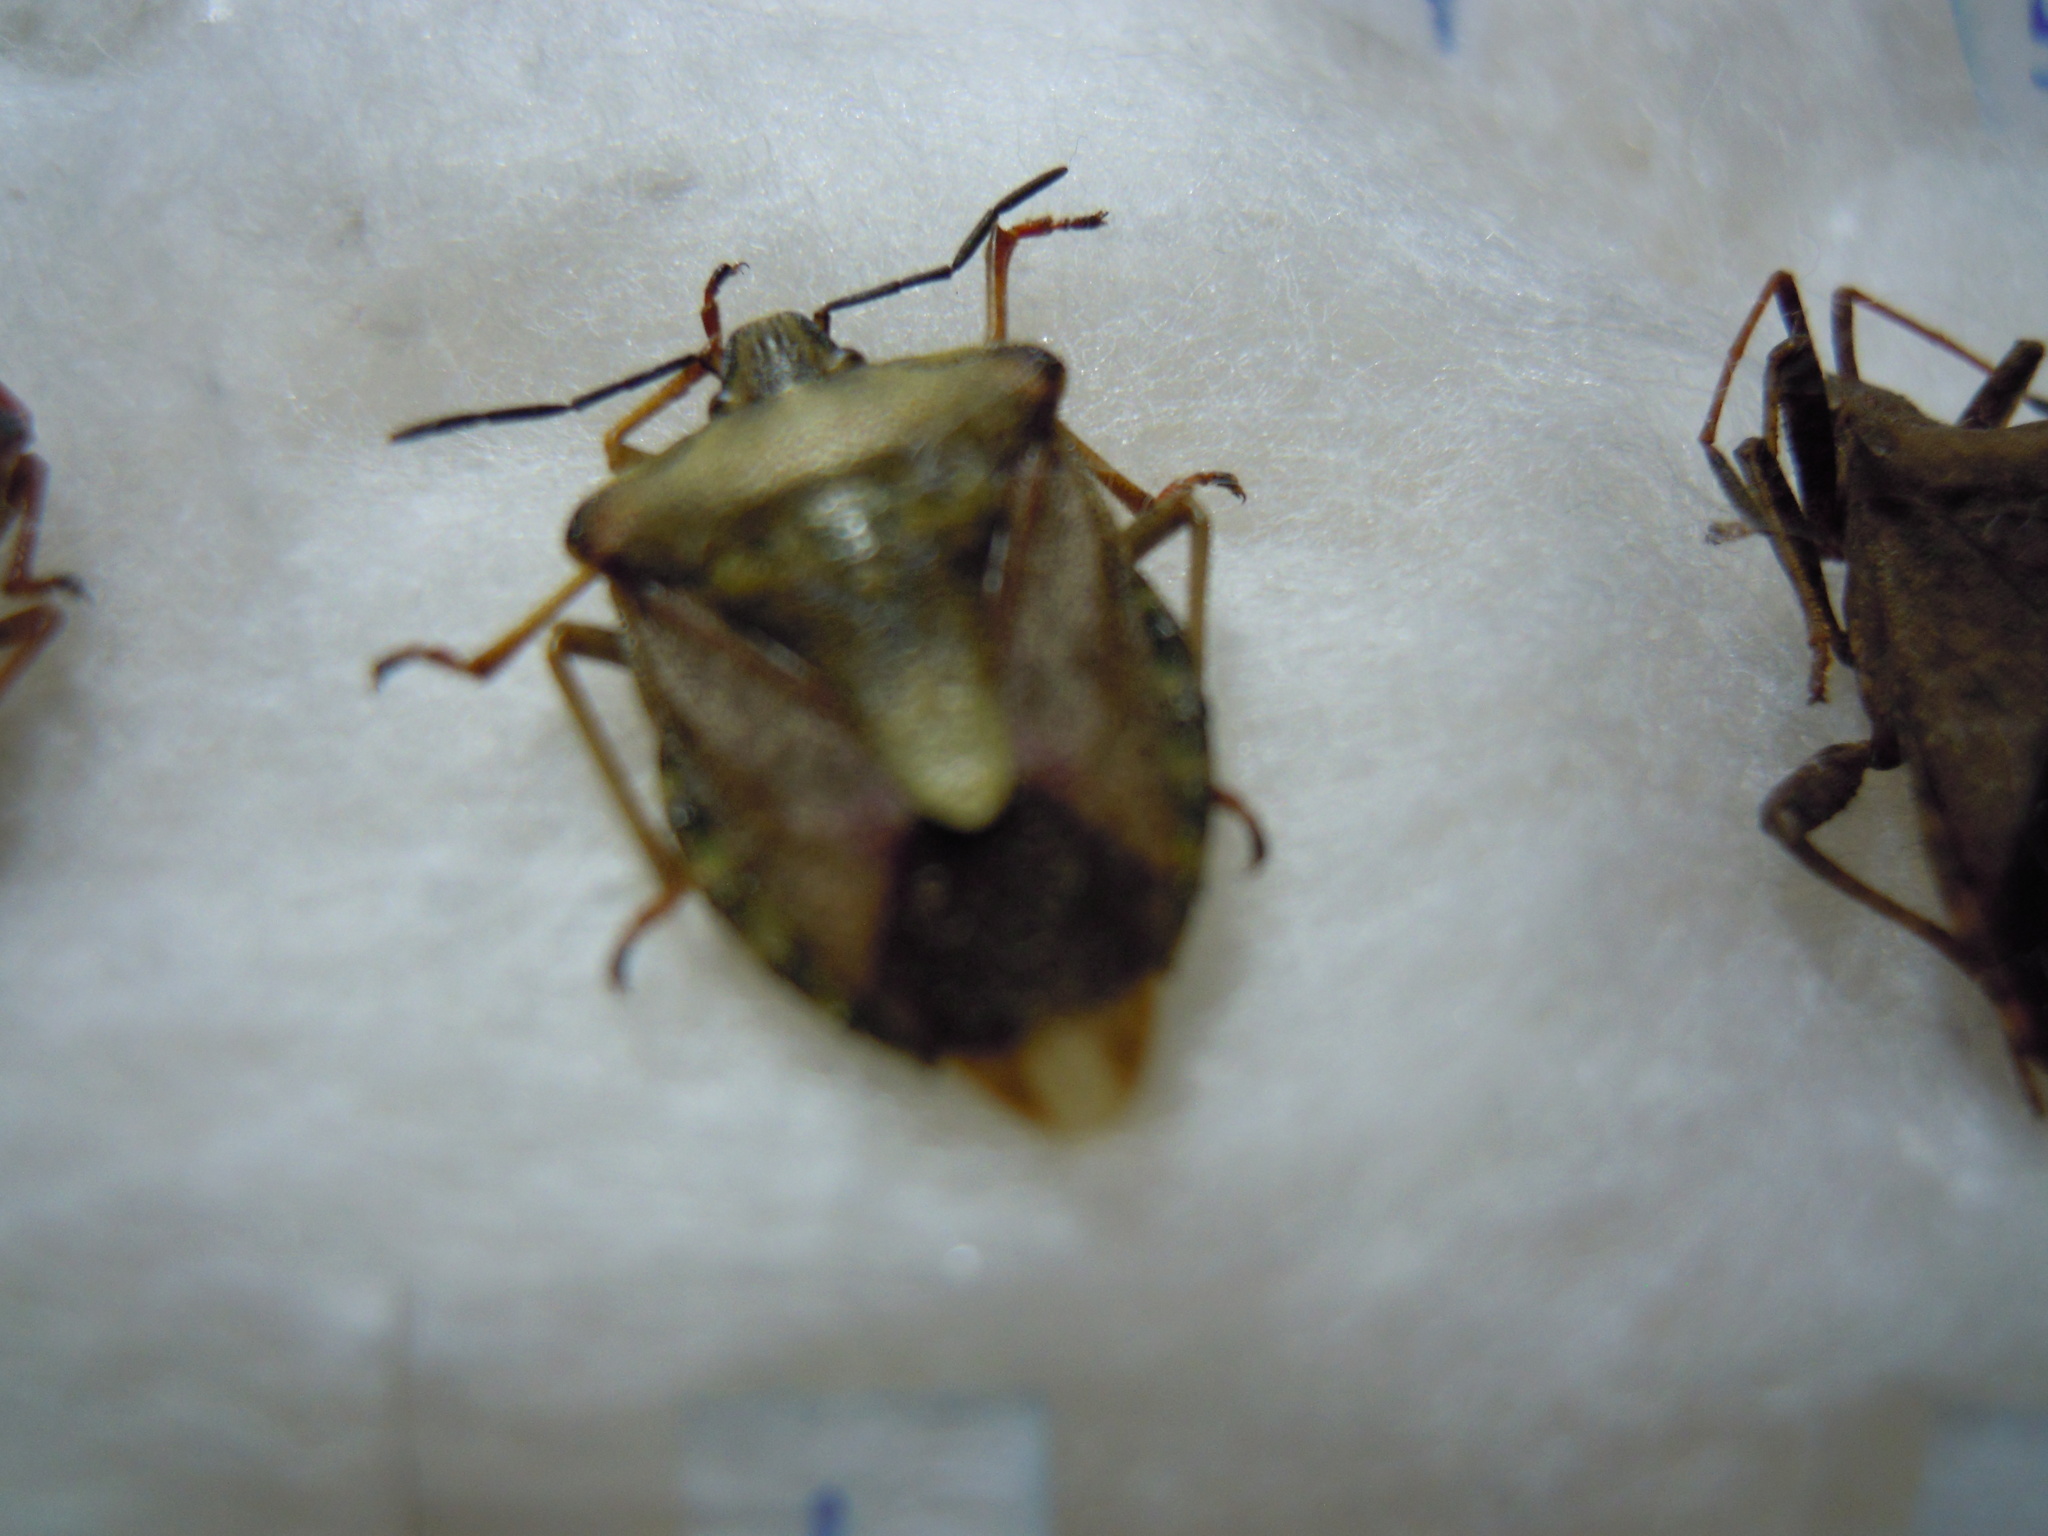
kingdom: Animalia
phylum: Arthropoda
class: Insecta
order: Hemiptera
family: Pentatomidae
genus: Carpocoris
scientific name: Carpocoris purpureipennis
